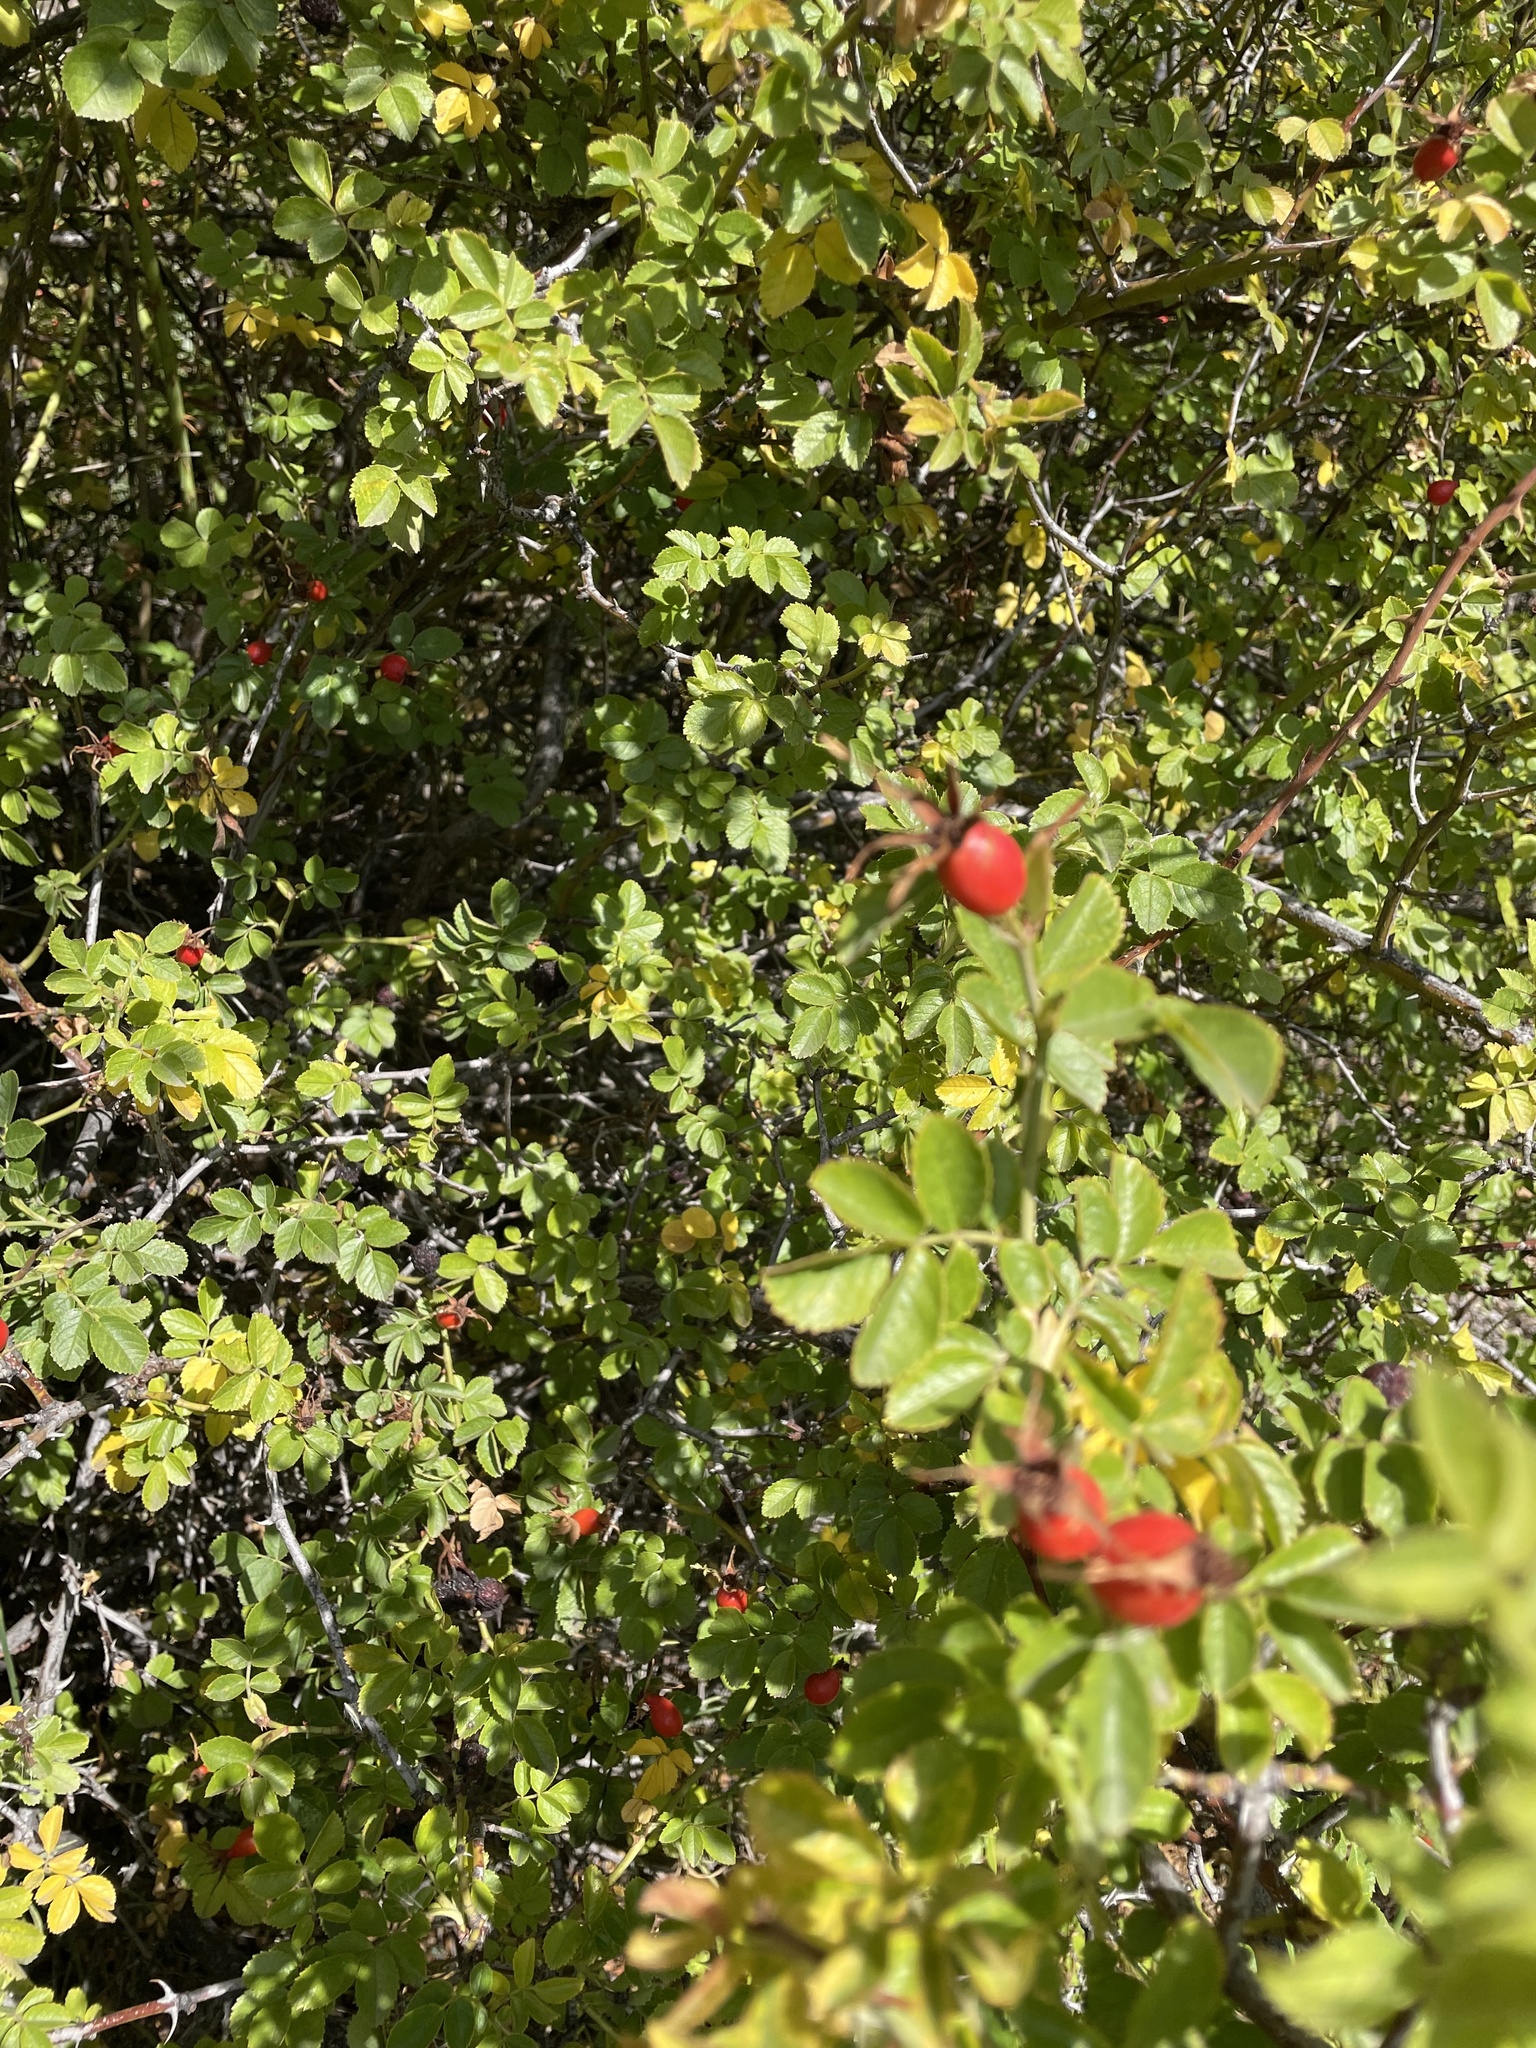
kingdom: Plantae
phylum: Tracheophyta
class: Magnoliopsida
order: Rosales
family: Rosaceae
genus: Rosa
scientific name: Rosa rubiginosa
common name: Sweet-briar
